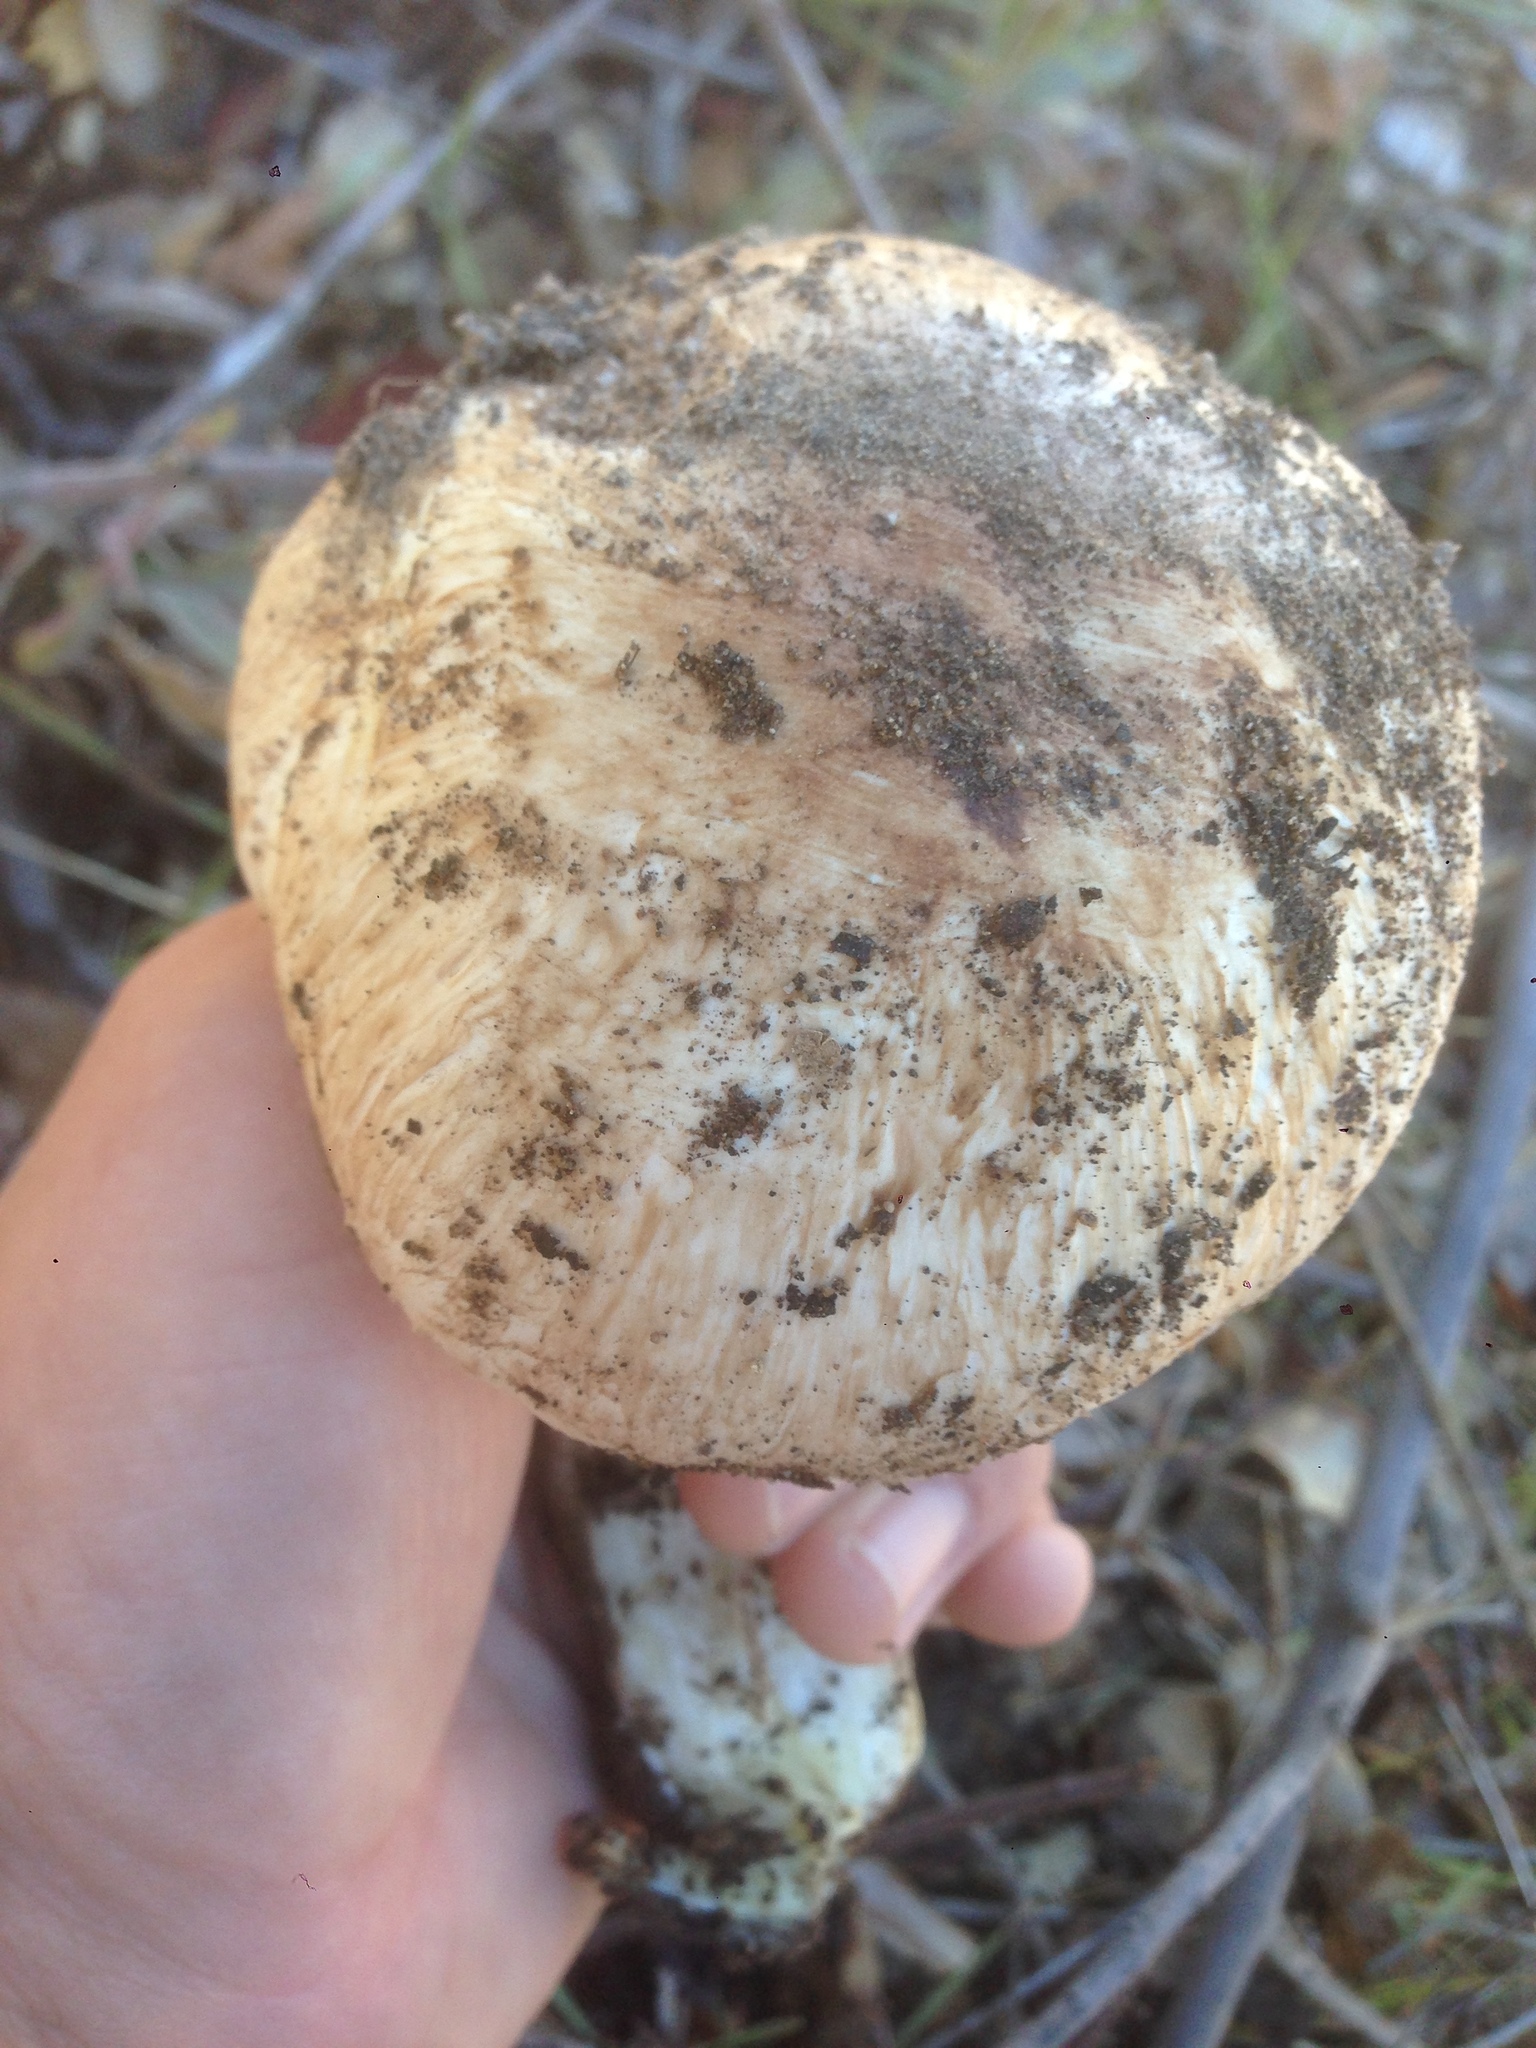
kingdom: Fungi
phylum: Basidiomycota
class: Agaricomycetes
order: Agaricales
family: Agaricaceae
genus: Agaricus
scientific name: Agaricus hondensis
